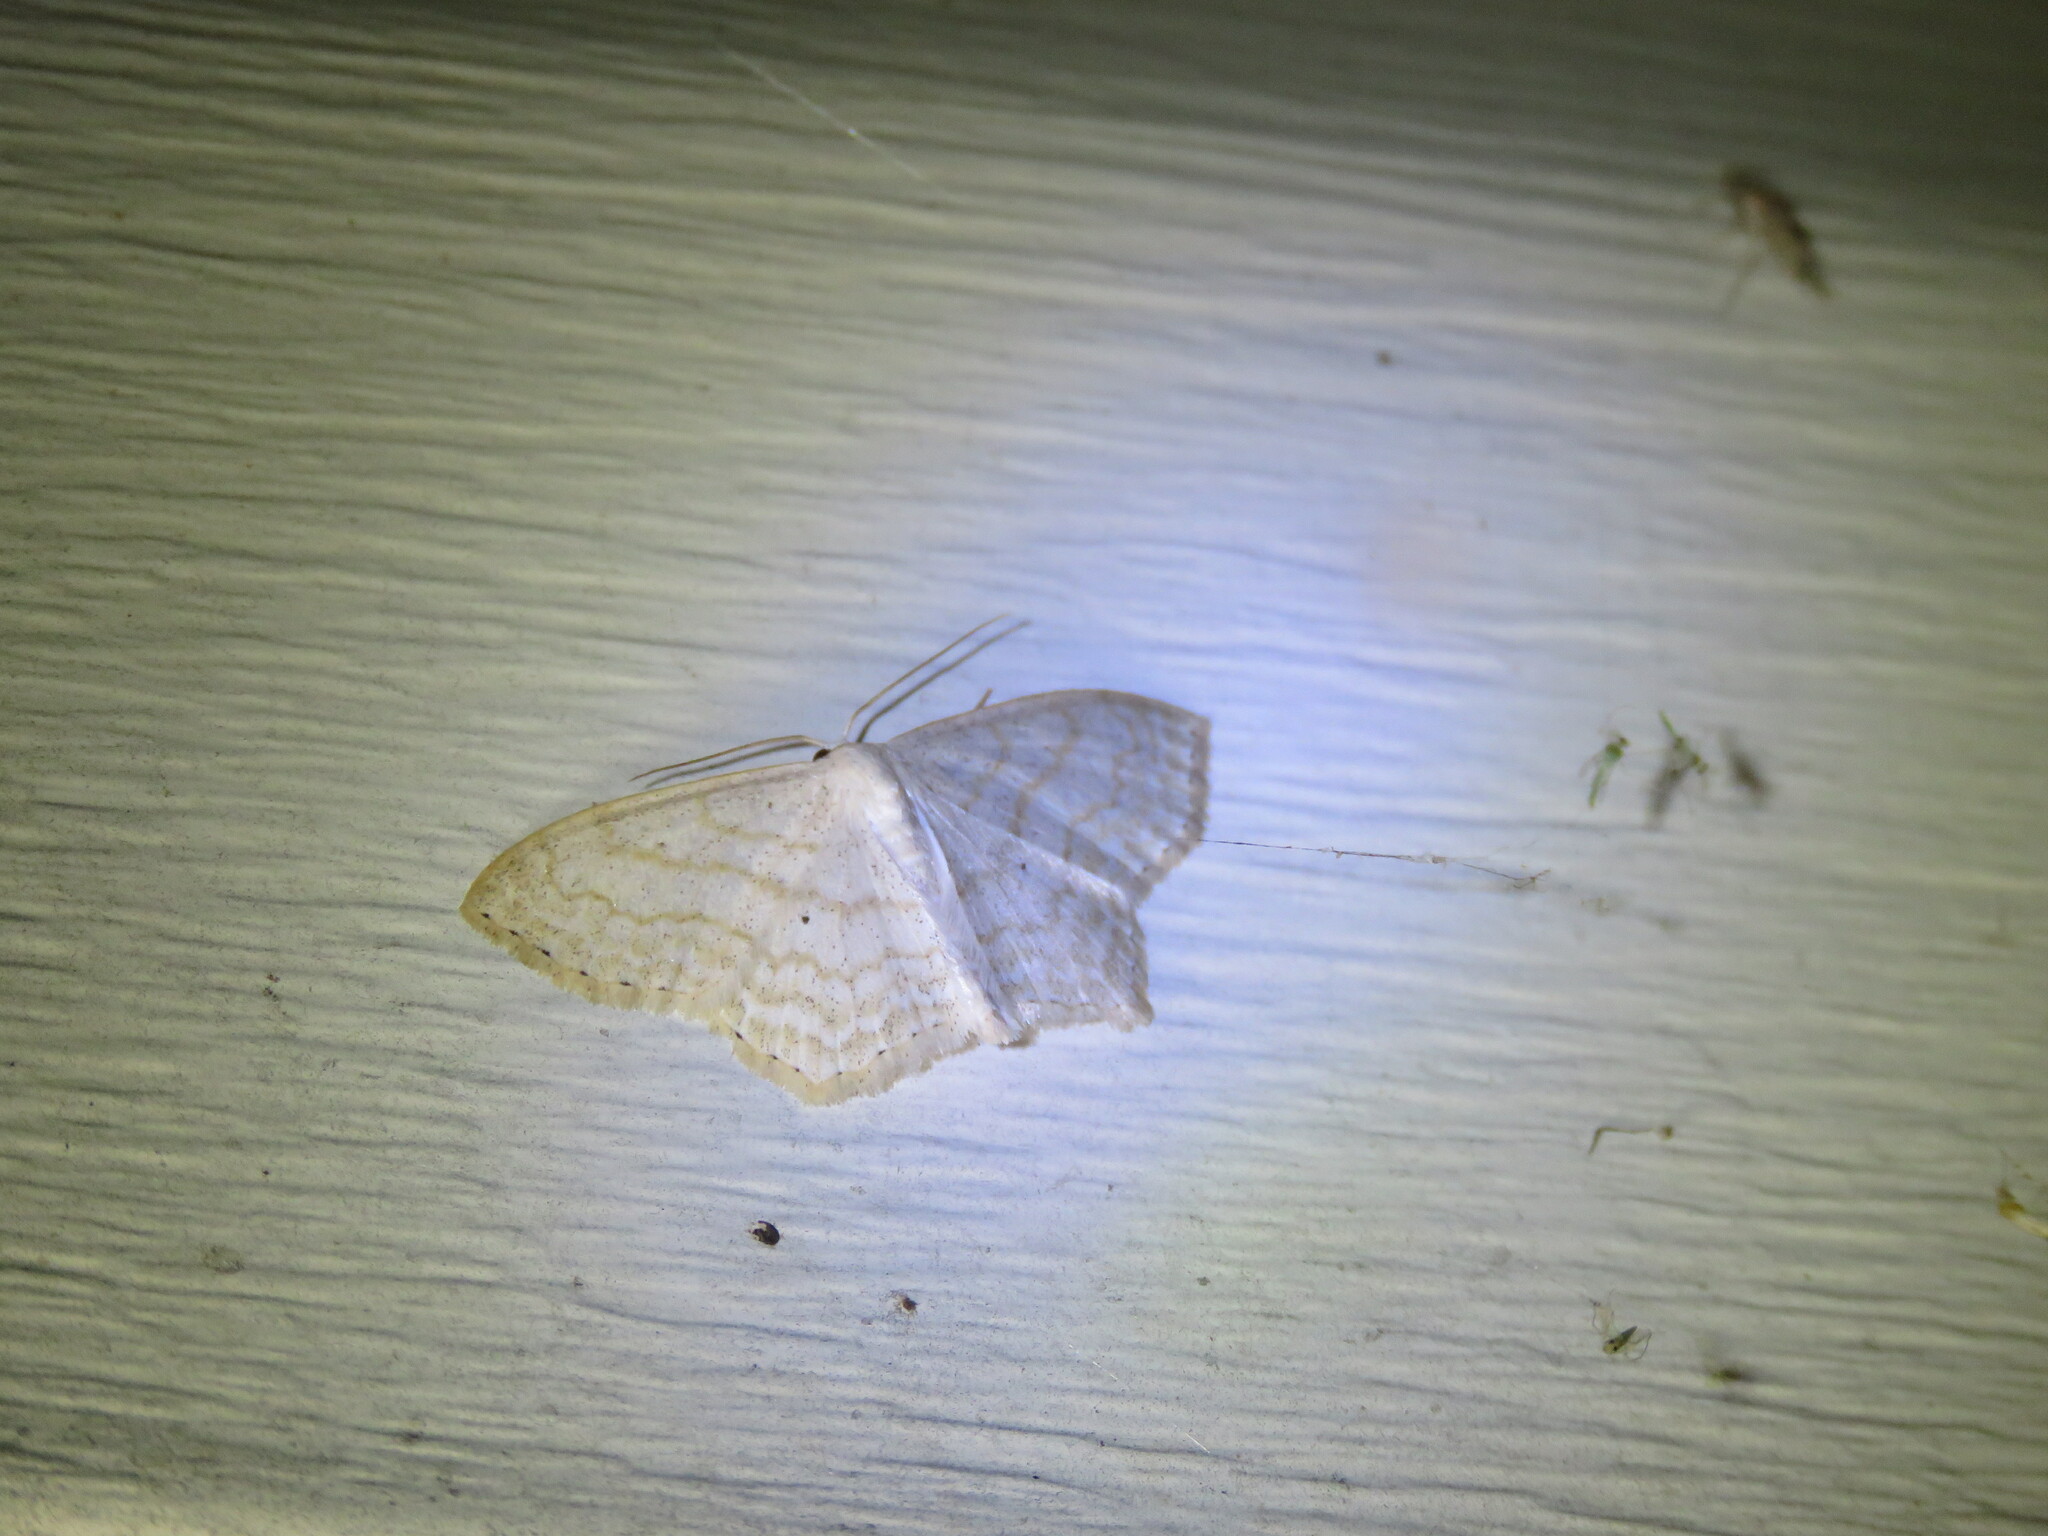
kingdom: Animalia
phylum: Arthropoda
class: Insecta
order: Lepidoptera
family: Geometridae
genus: Scopula
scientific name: Scopula limboundata
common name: Large lace border
